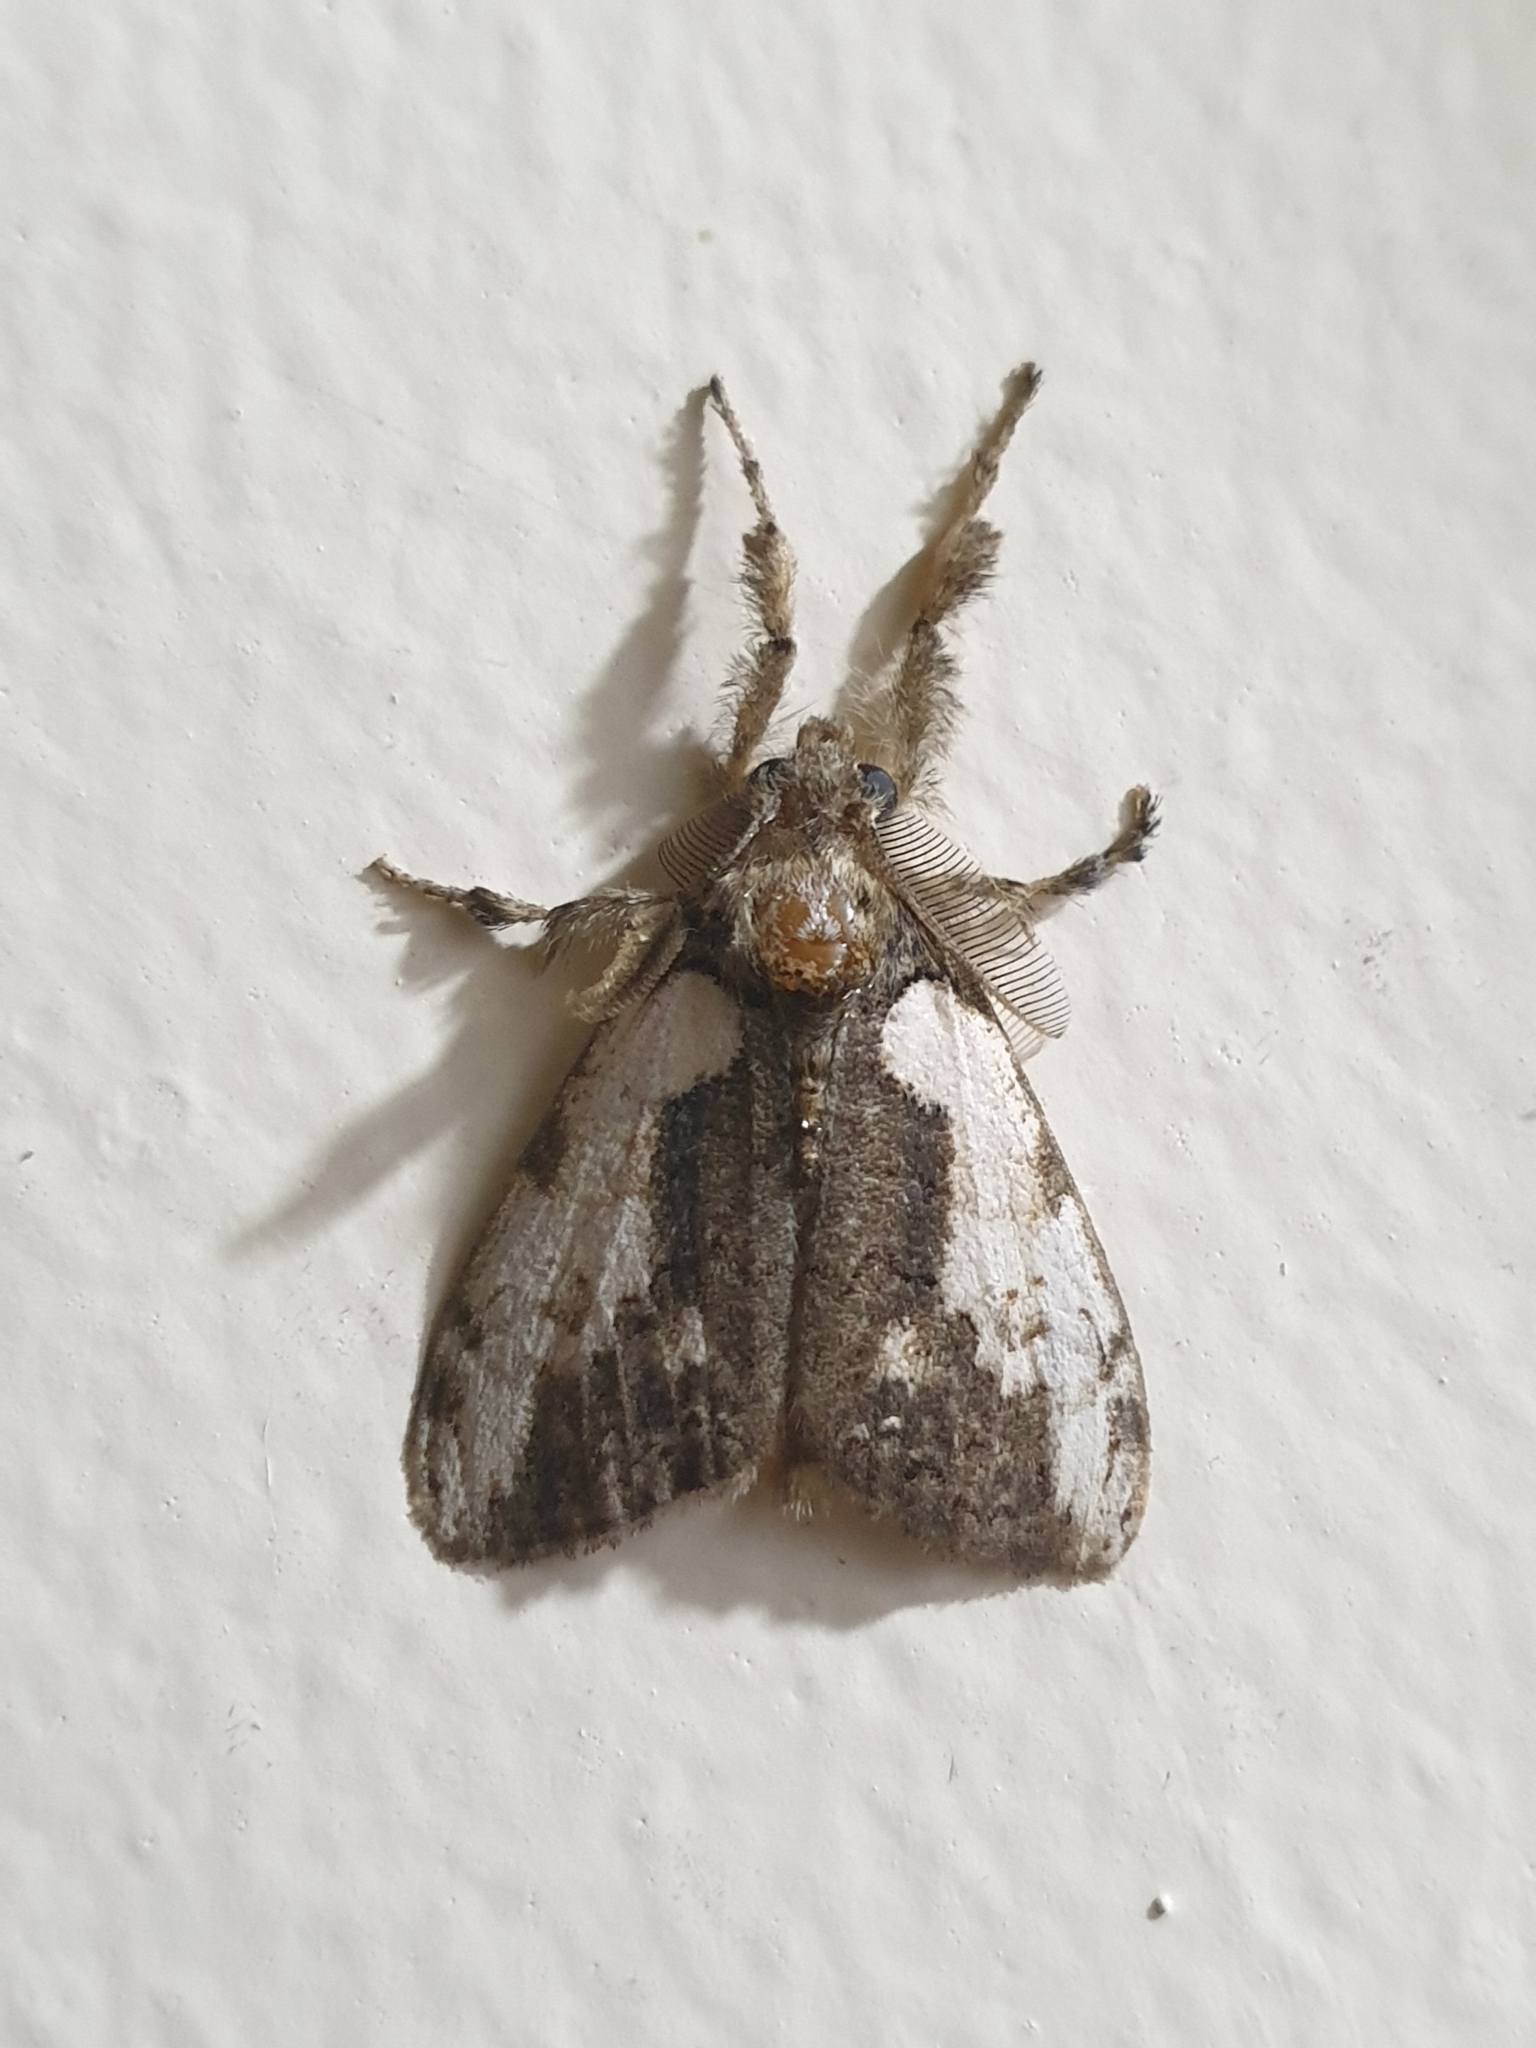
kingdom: Animalia
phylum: Arthropoda
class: Insecta
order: Lepidoptera
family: Erebidae
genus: Olene
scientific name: Olene mendosa
